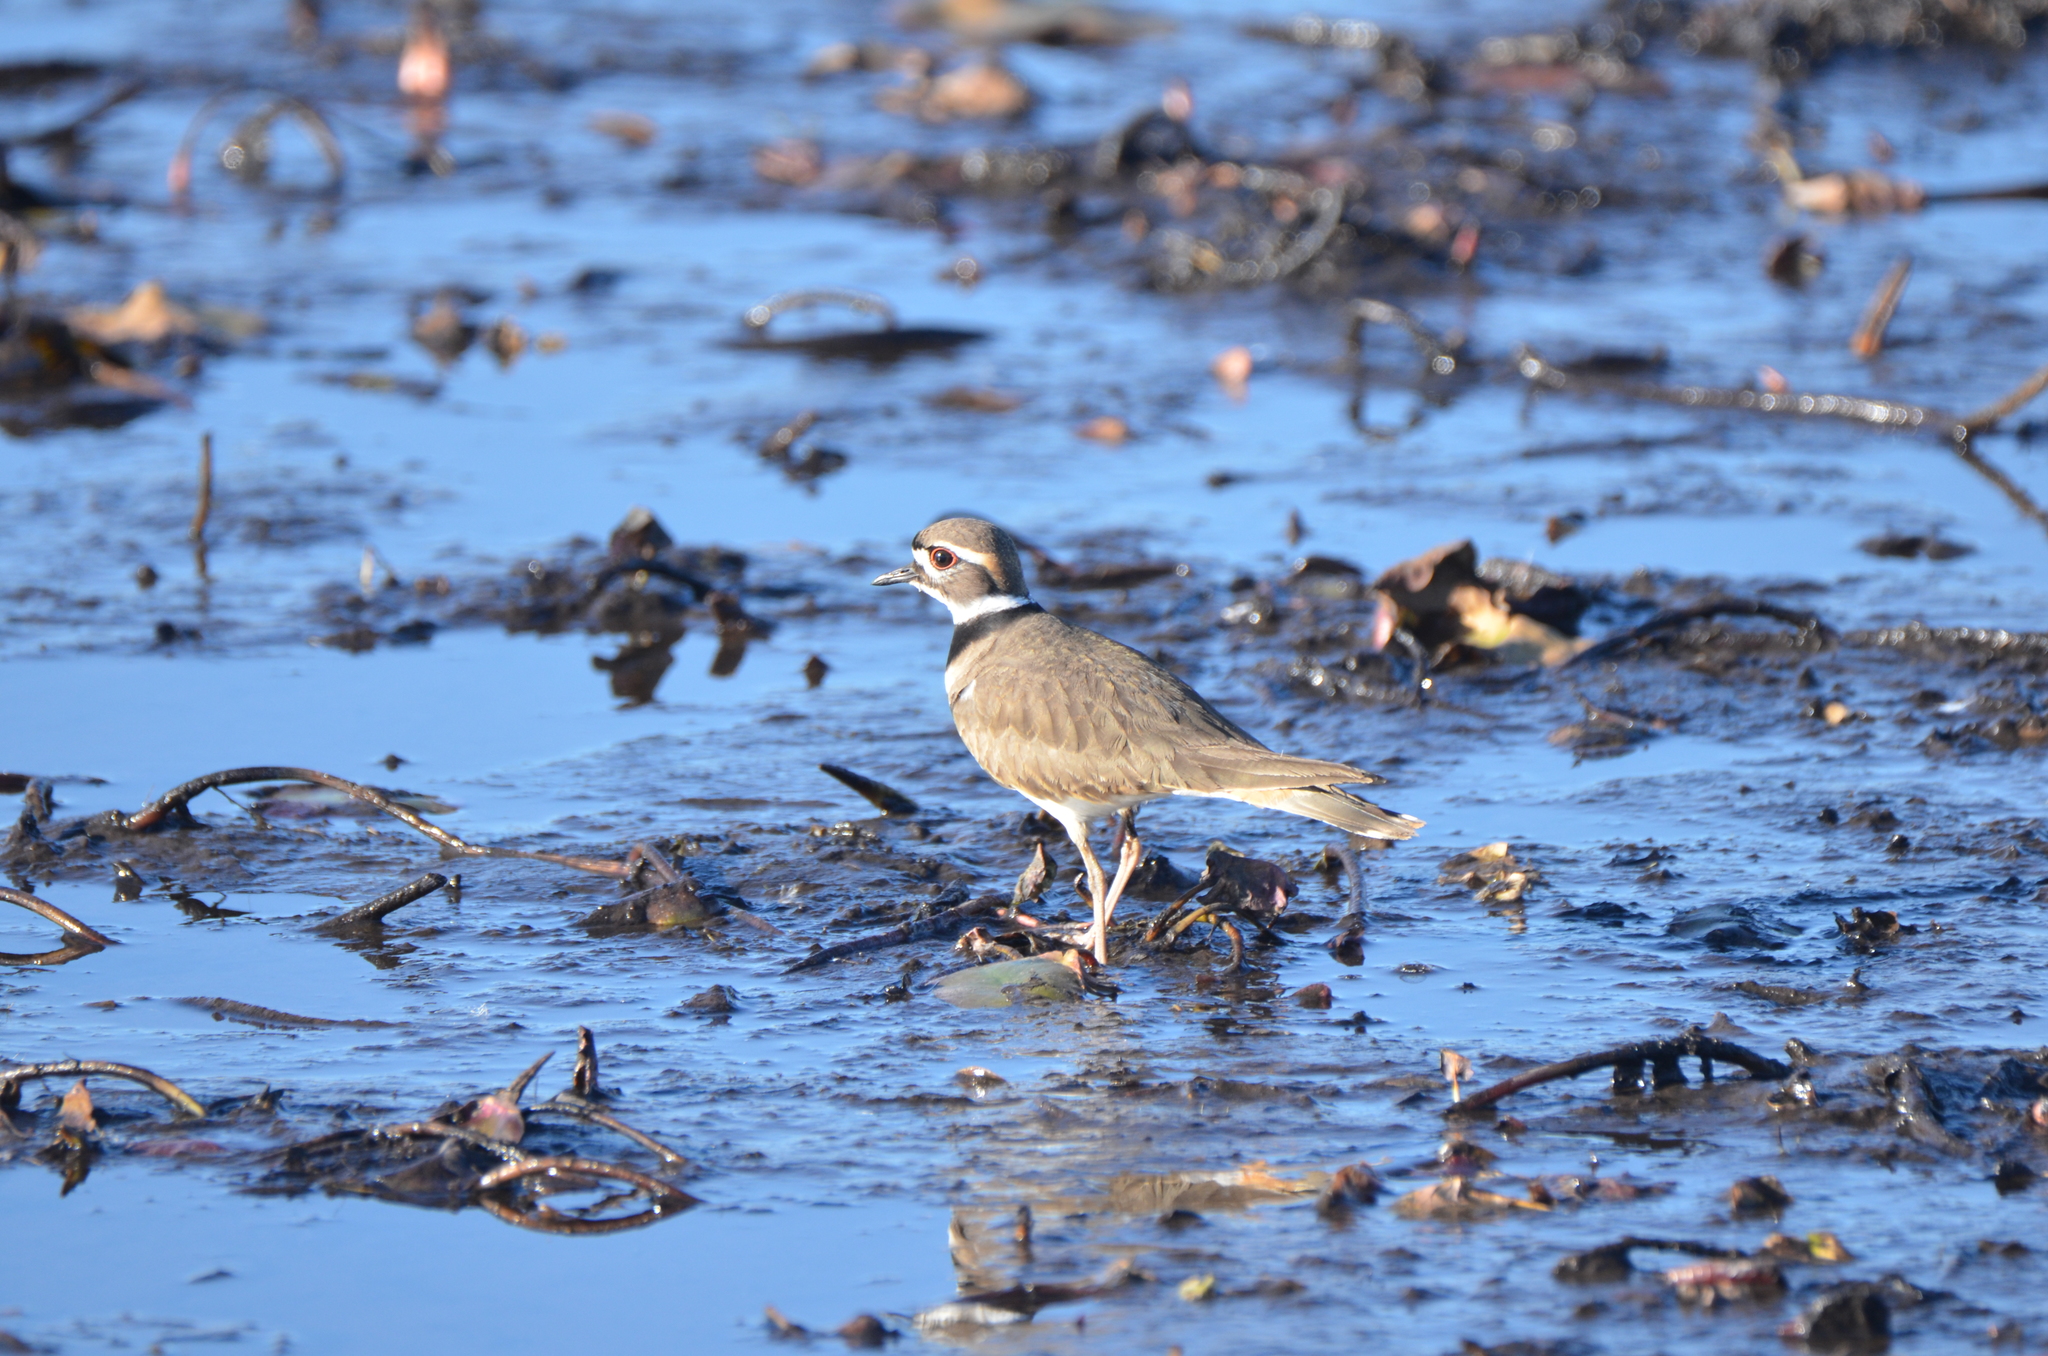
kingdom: Animalia
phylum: Chordata
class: Aves
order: Charadriiformes
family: Charadriidae
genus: Charadrius
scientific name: Charadrius vociferus
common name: Killdeer
